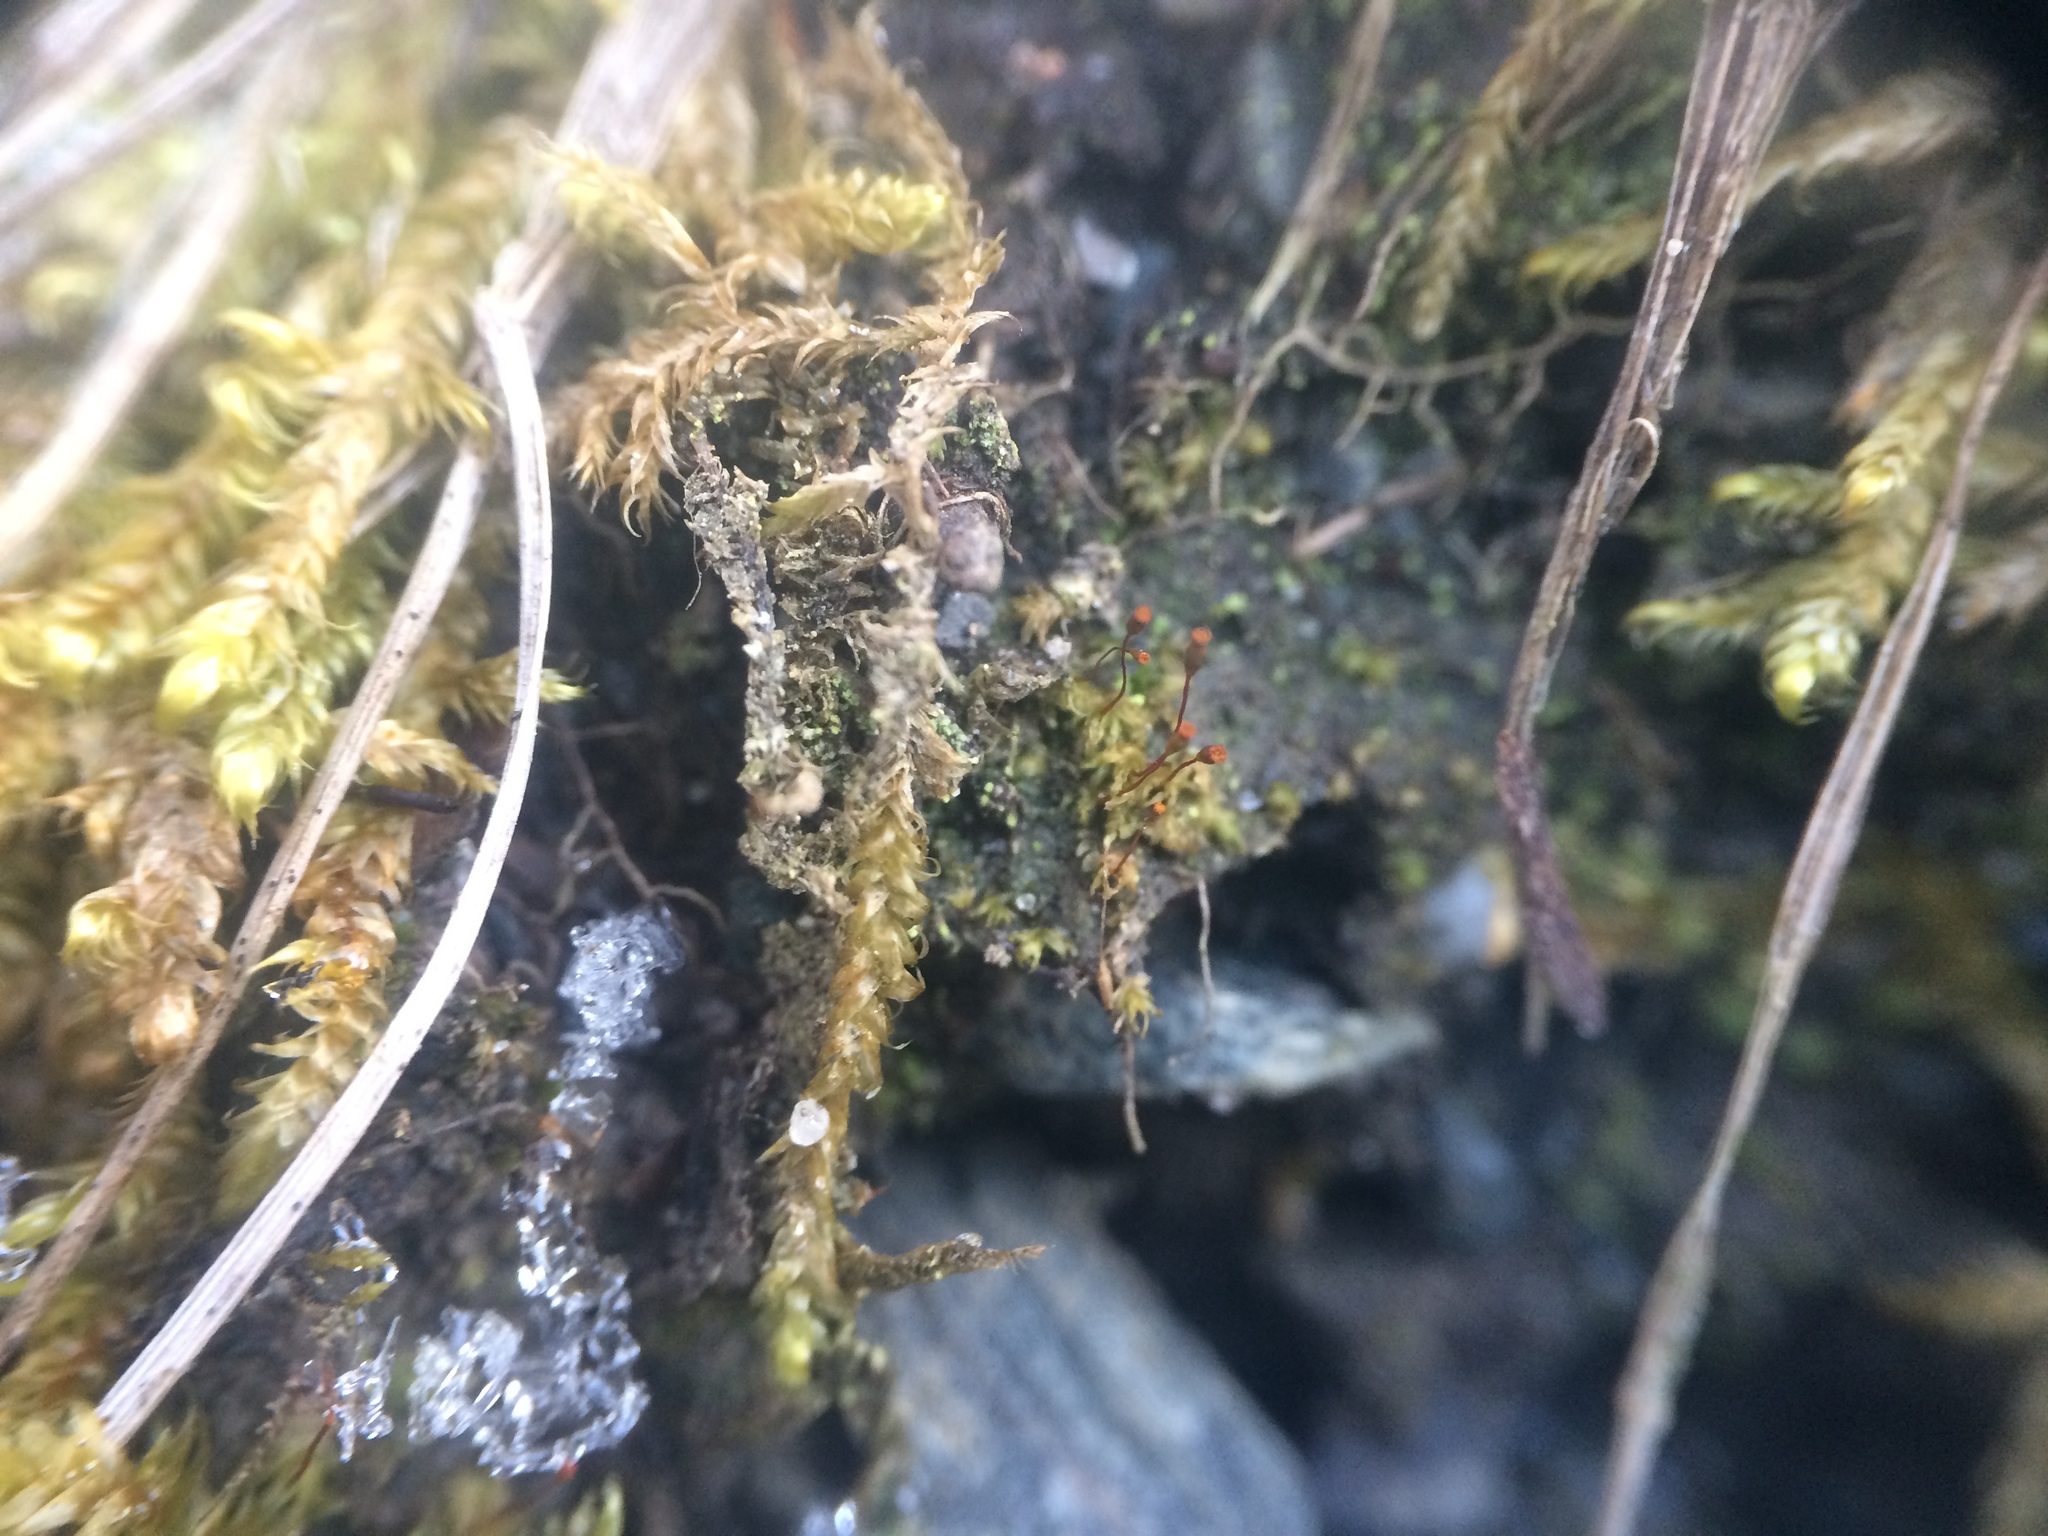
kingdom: Plantae
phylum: Bryophyta
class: Bryopsida
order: Dicranales
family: Fissidentaceae
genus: Fissidens
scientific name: Fissidens bryoides
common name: Lesser pocket moss
